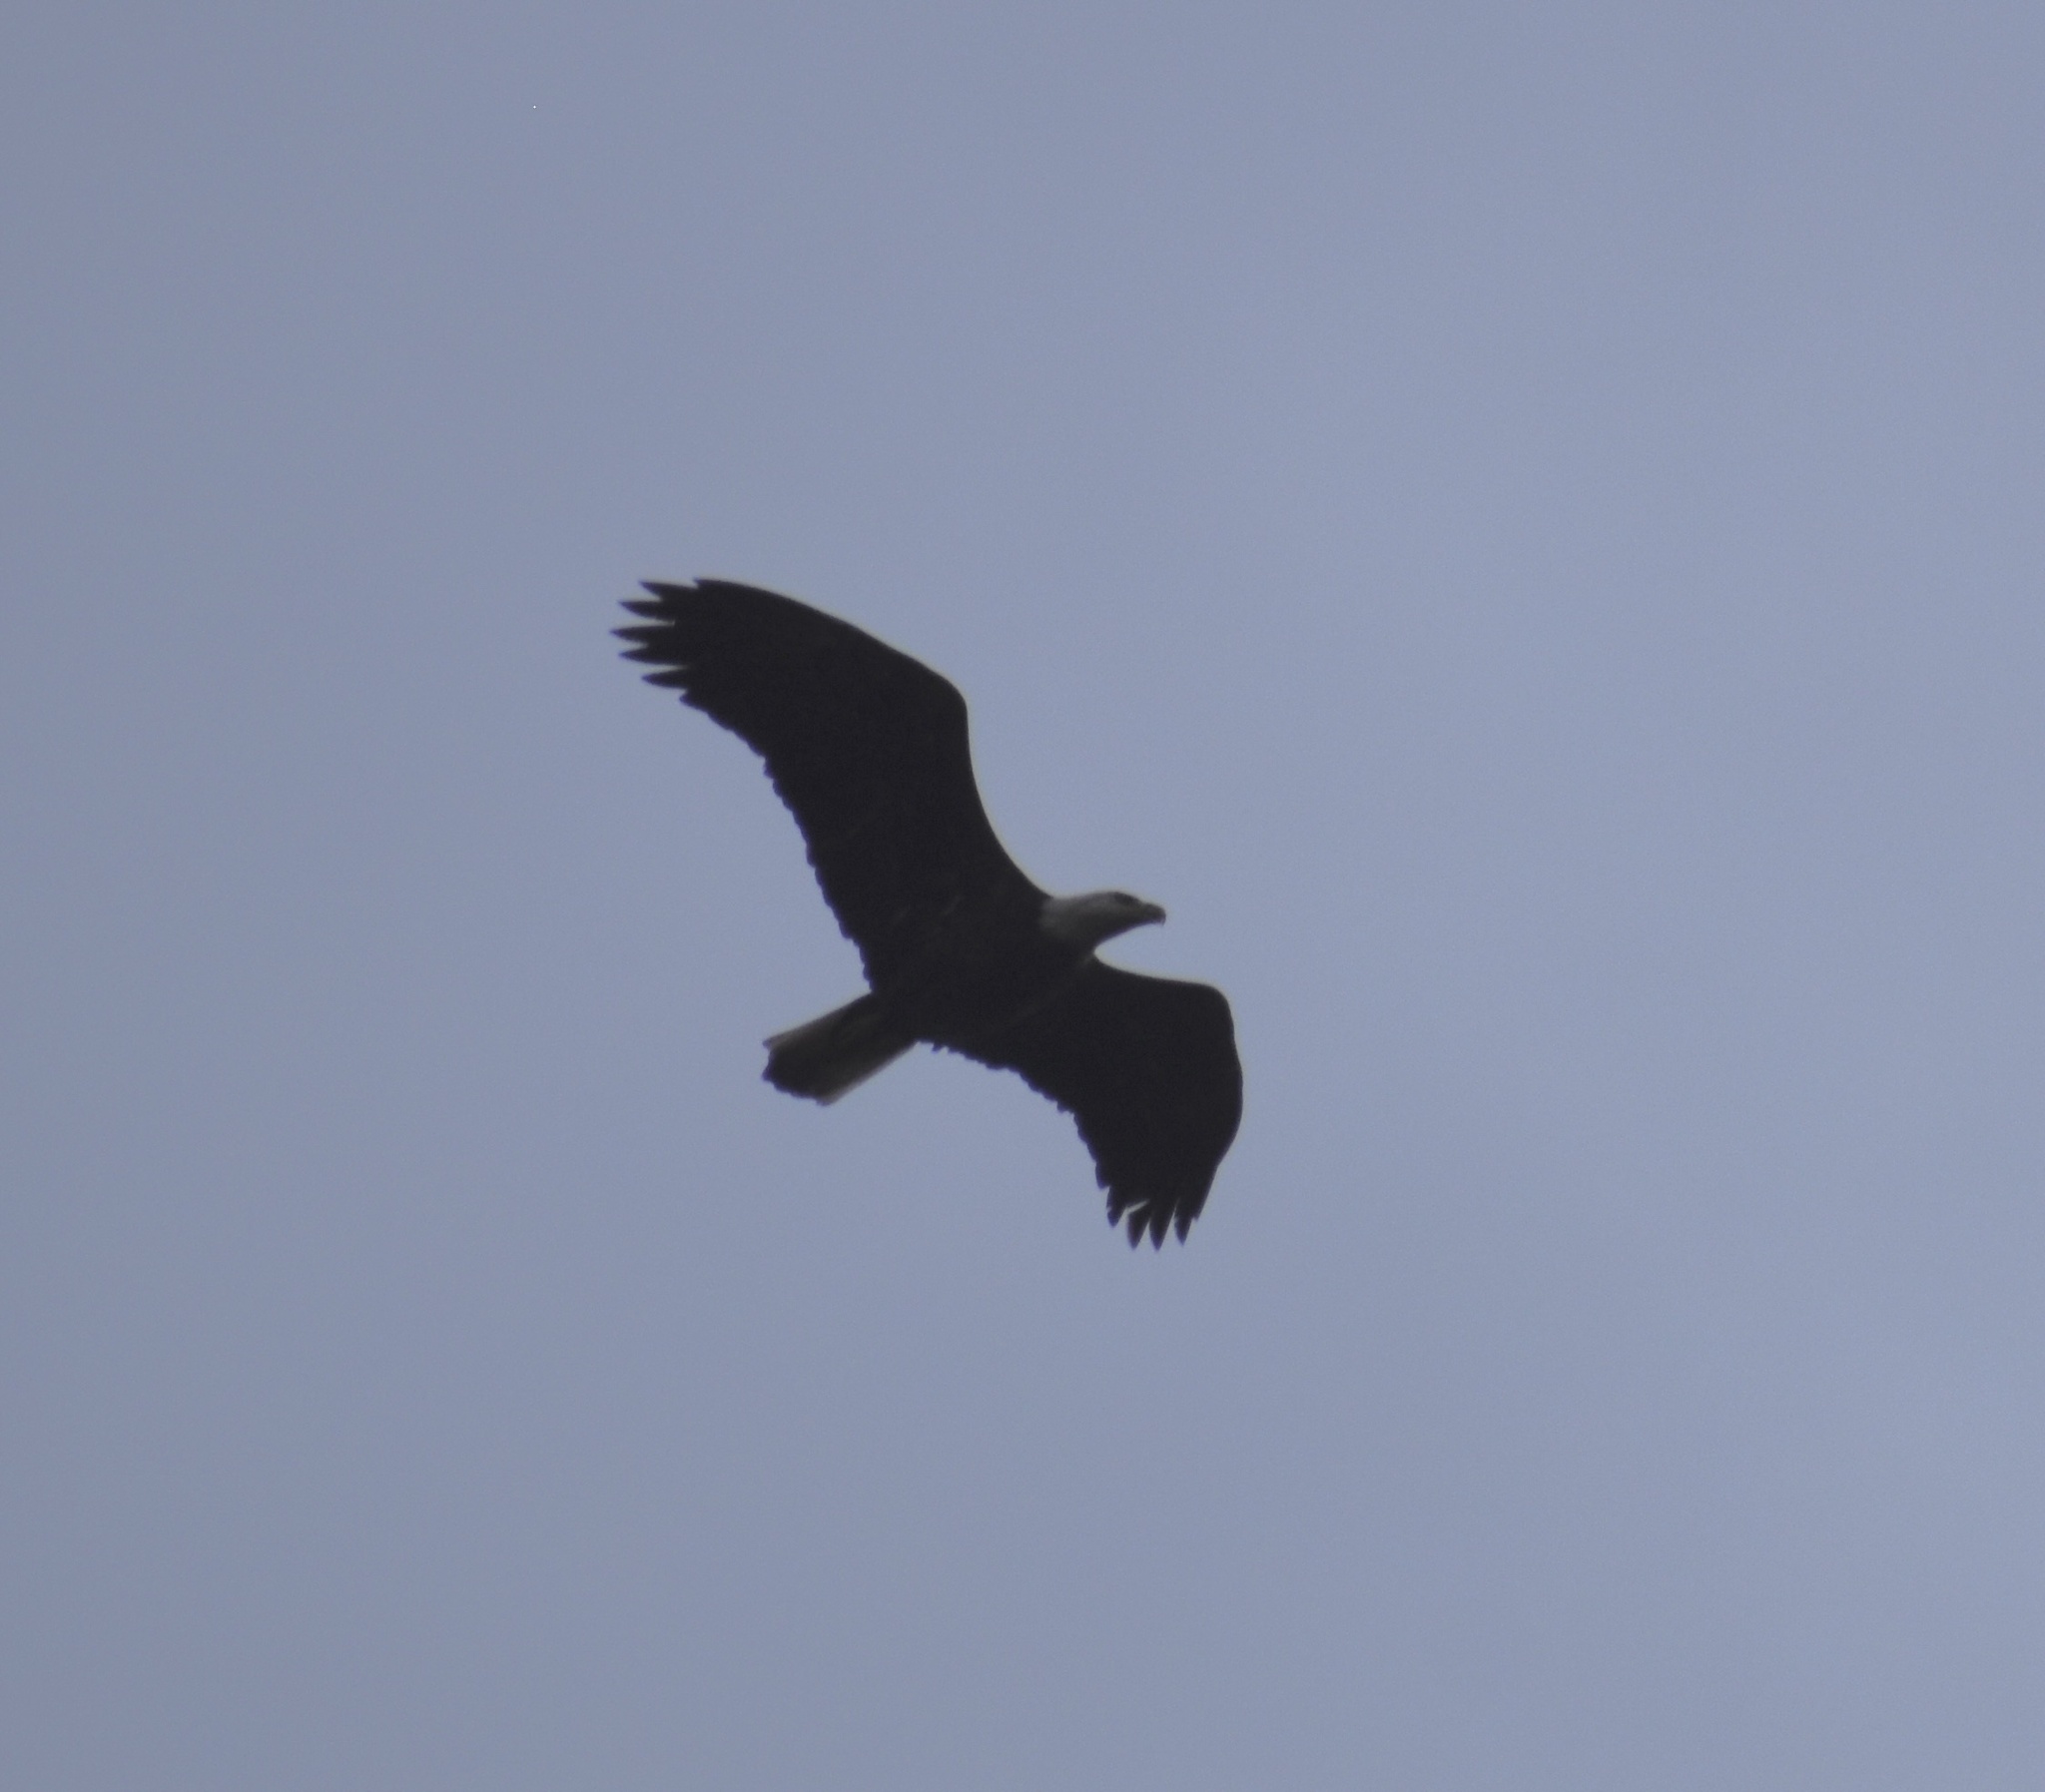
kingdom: Animalia
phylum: Chordata
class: Aves
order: Accipitriformes
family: Accipitridae
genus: Haliaeetus
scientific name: Haliaeetus leucocephalus
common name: Bald eagle
